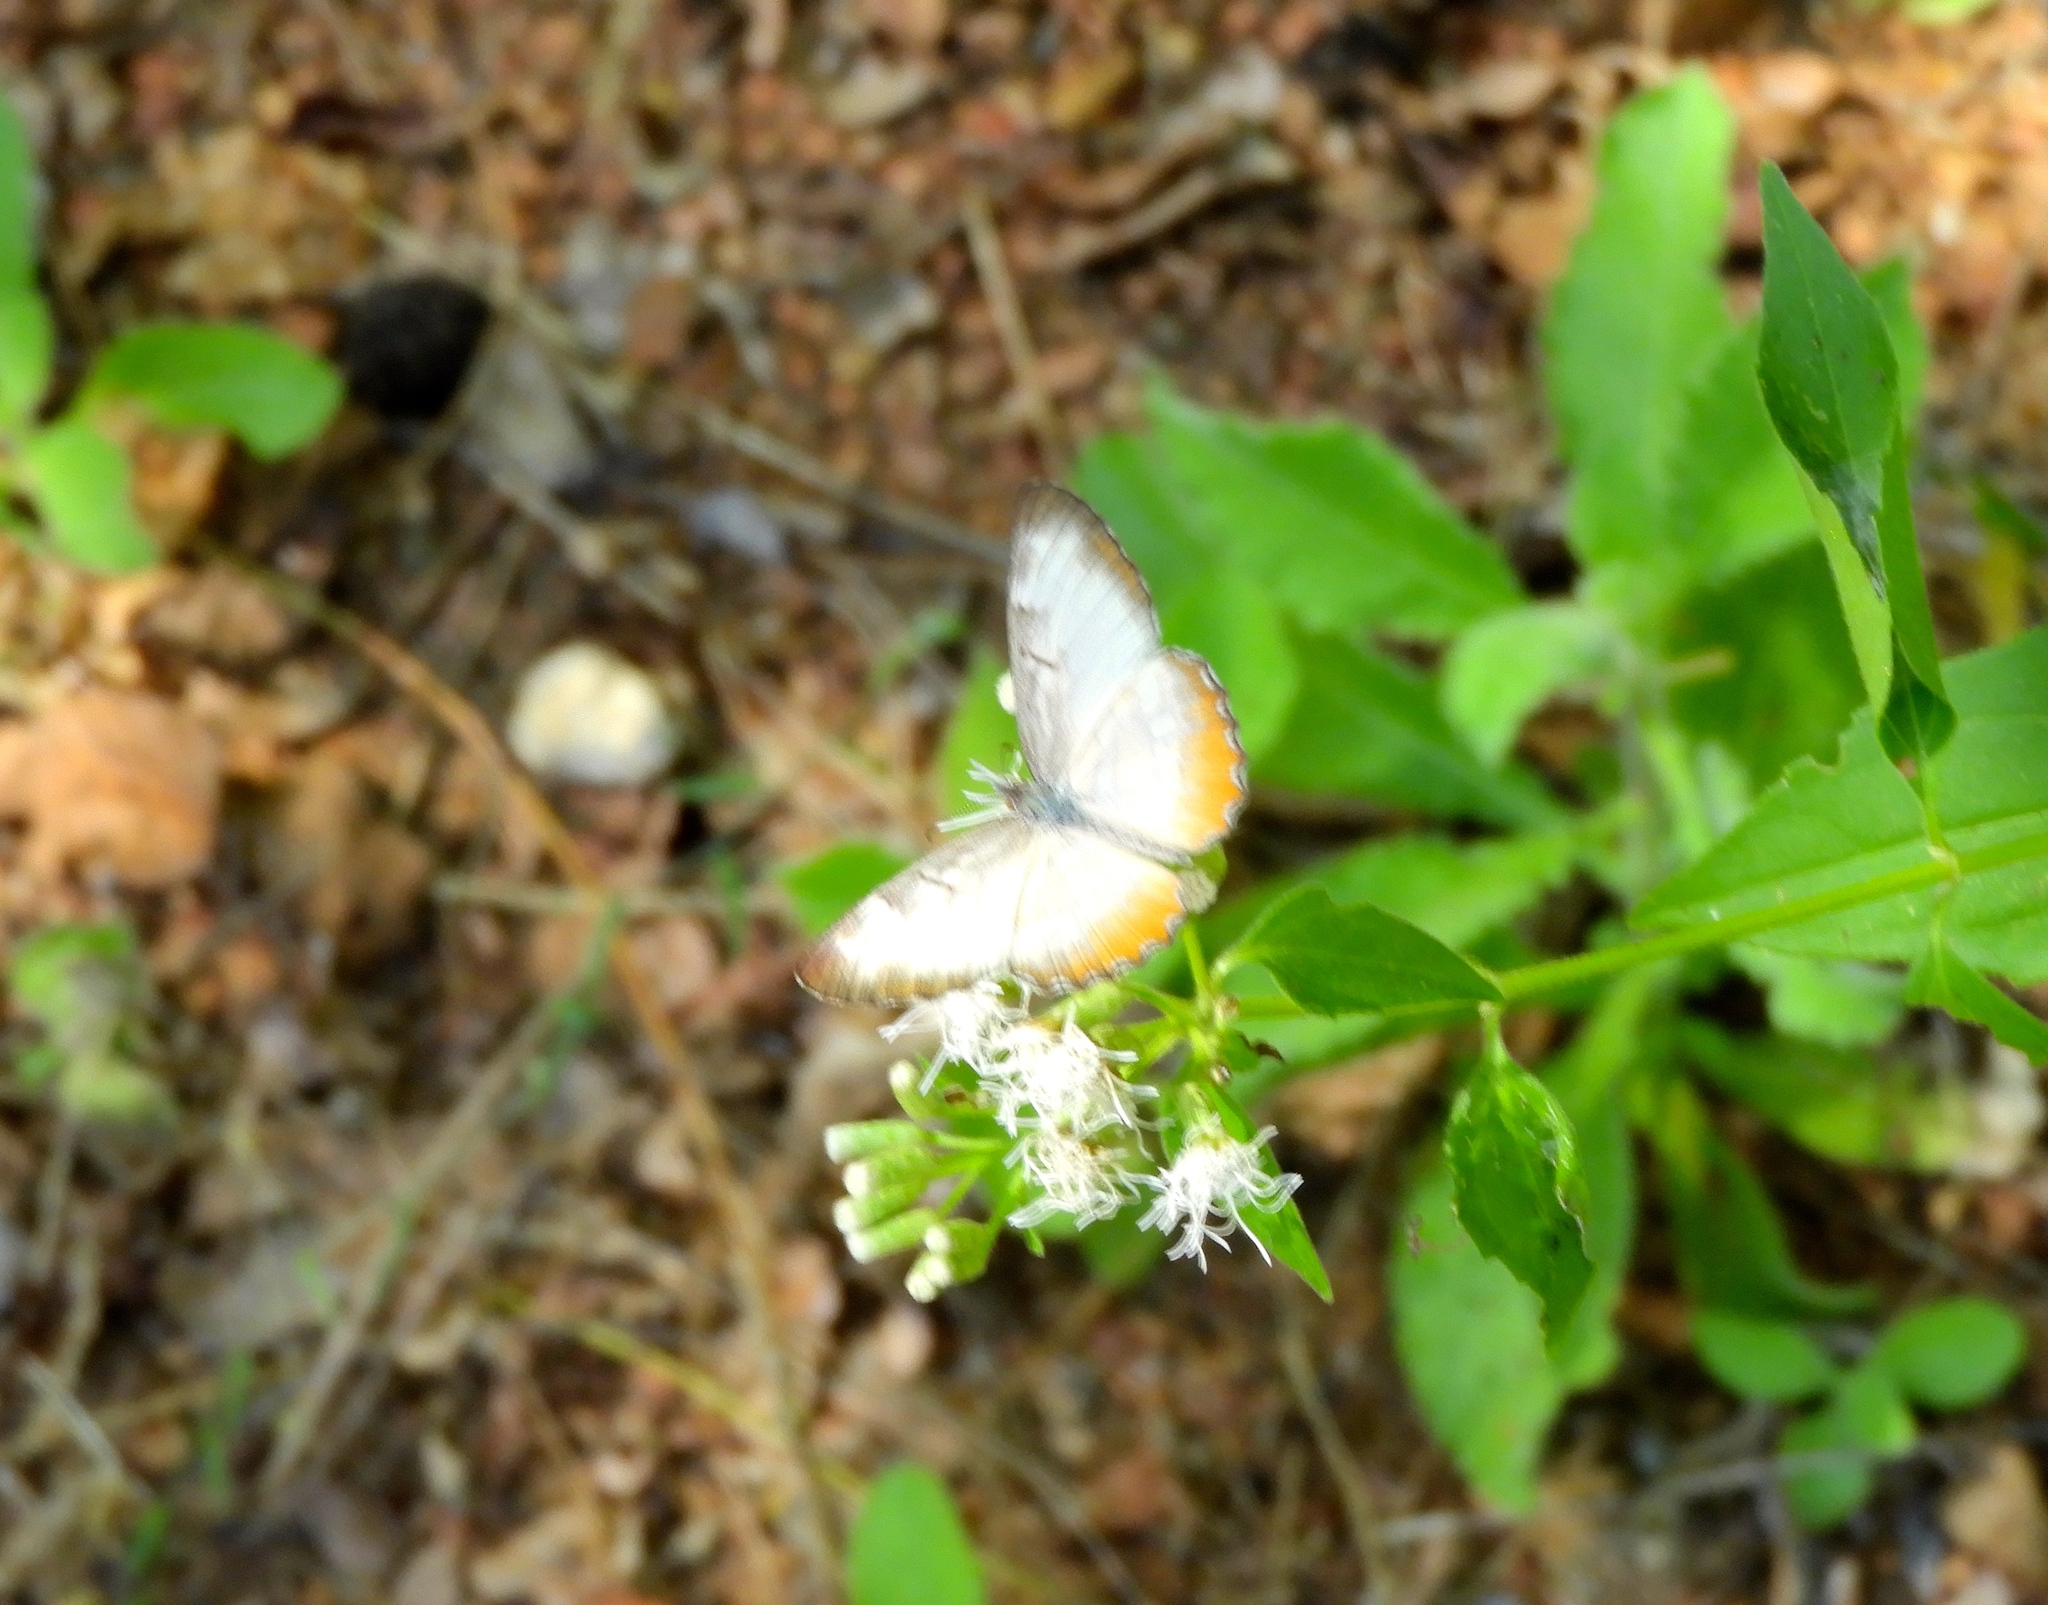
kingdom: Animalia
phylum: Arthropoda
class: Insecta
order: Lepidoptera
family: Nymphalidae
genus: Mestra
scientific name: Mestra amymone
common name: Common mestra
